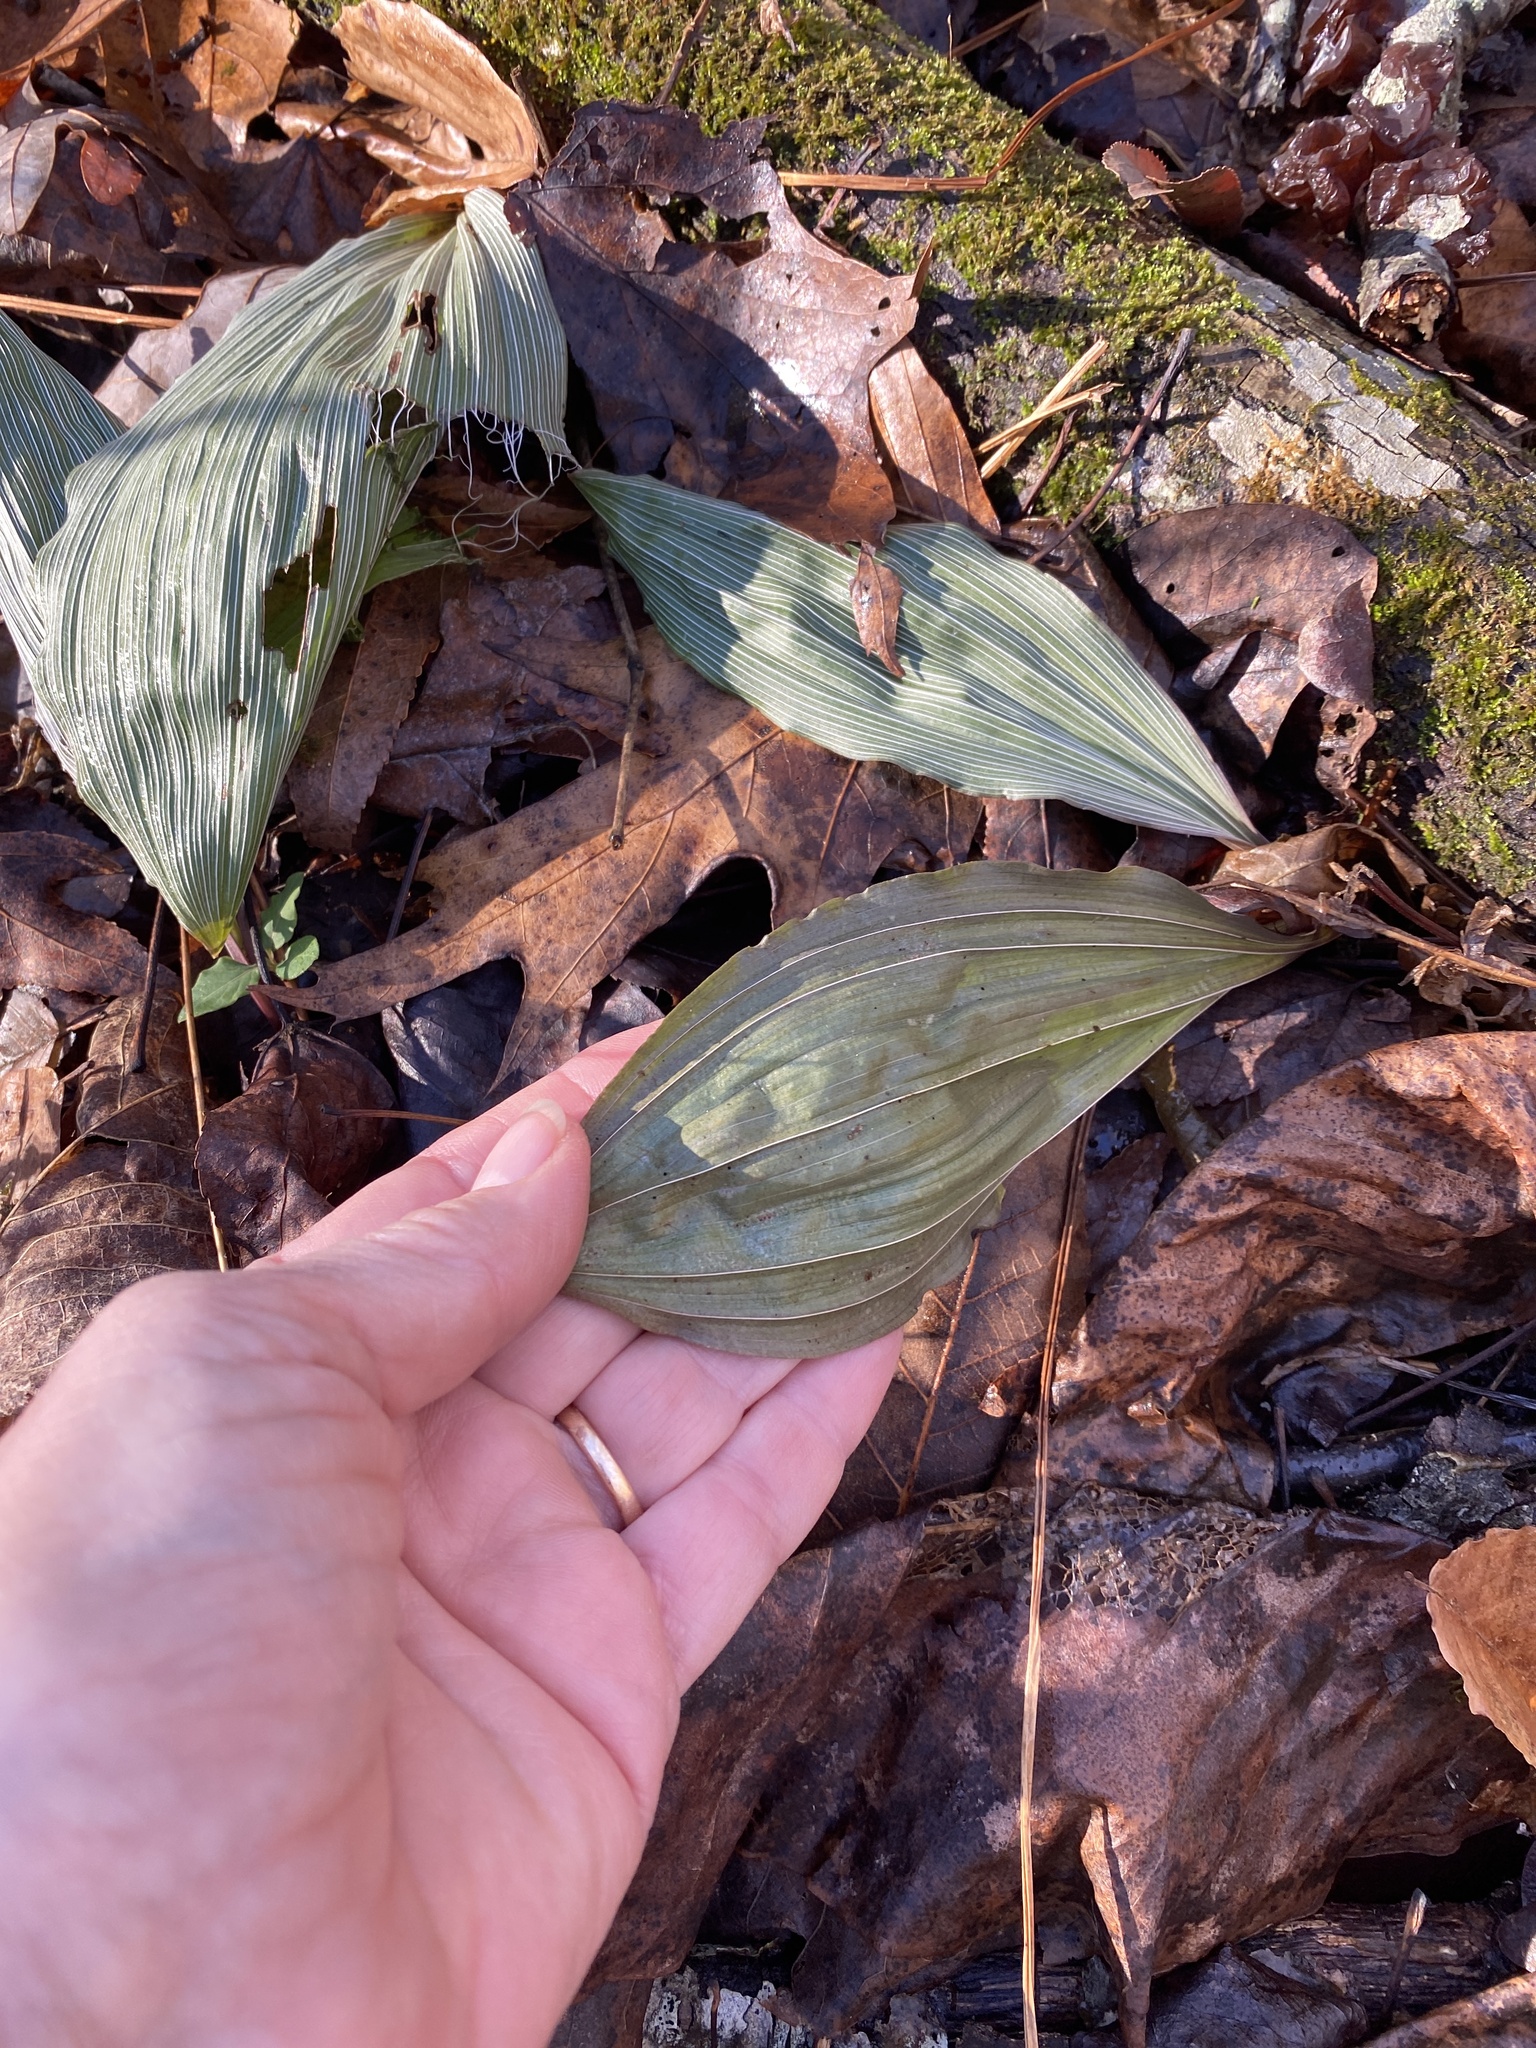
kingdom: Plantae
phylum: Tracheophyta
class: Liliopsida
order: Asparagales
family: Orchidaceae
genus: Aplectrum
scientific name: Aplectrum hyemale
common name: Adam-and-eve
